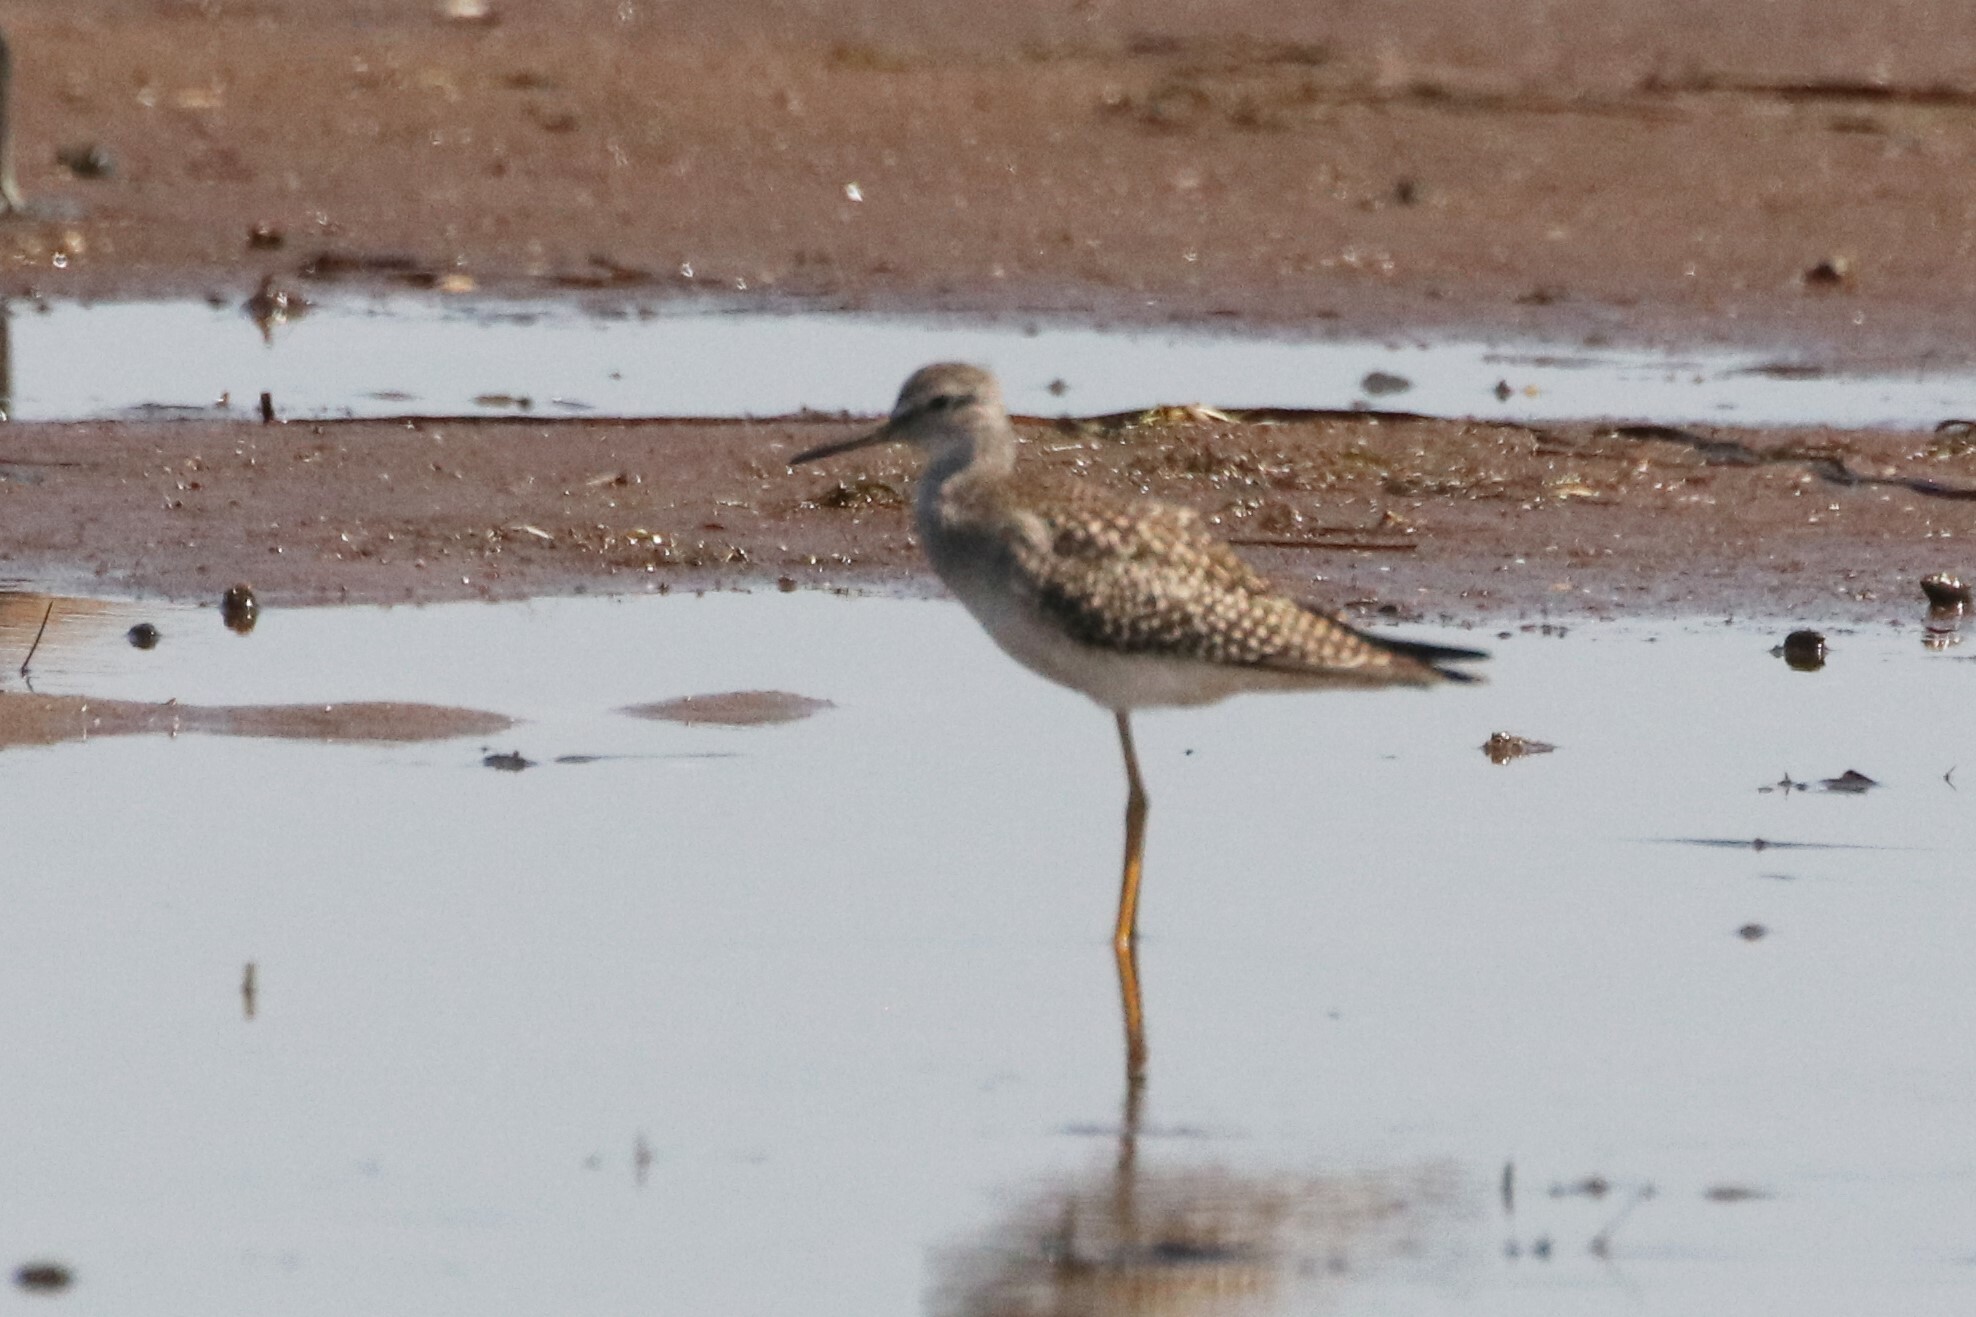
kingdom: Animalia
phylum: Chordata
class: Aves
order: Charadriiformes
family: Scolopacidae
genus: Tringa
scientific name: Tringa flavipes
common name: Lesser yellowlegs
